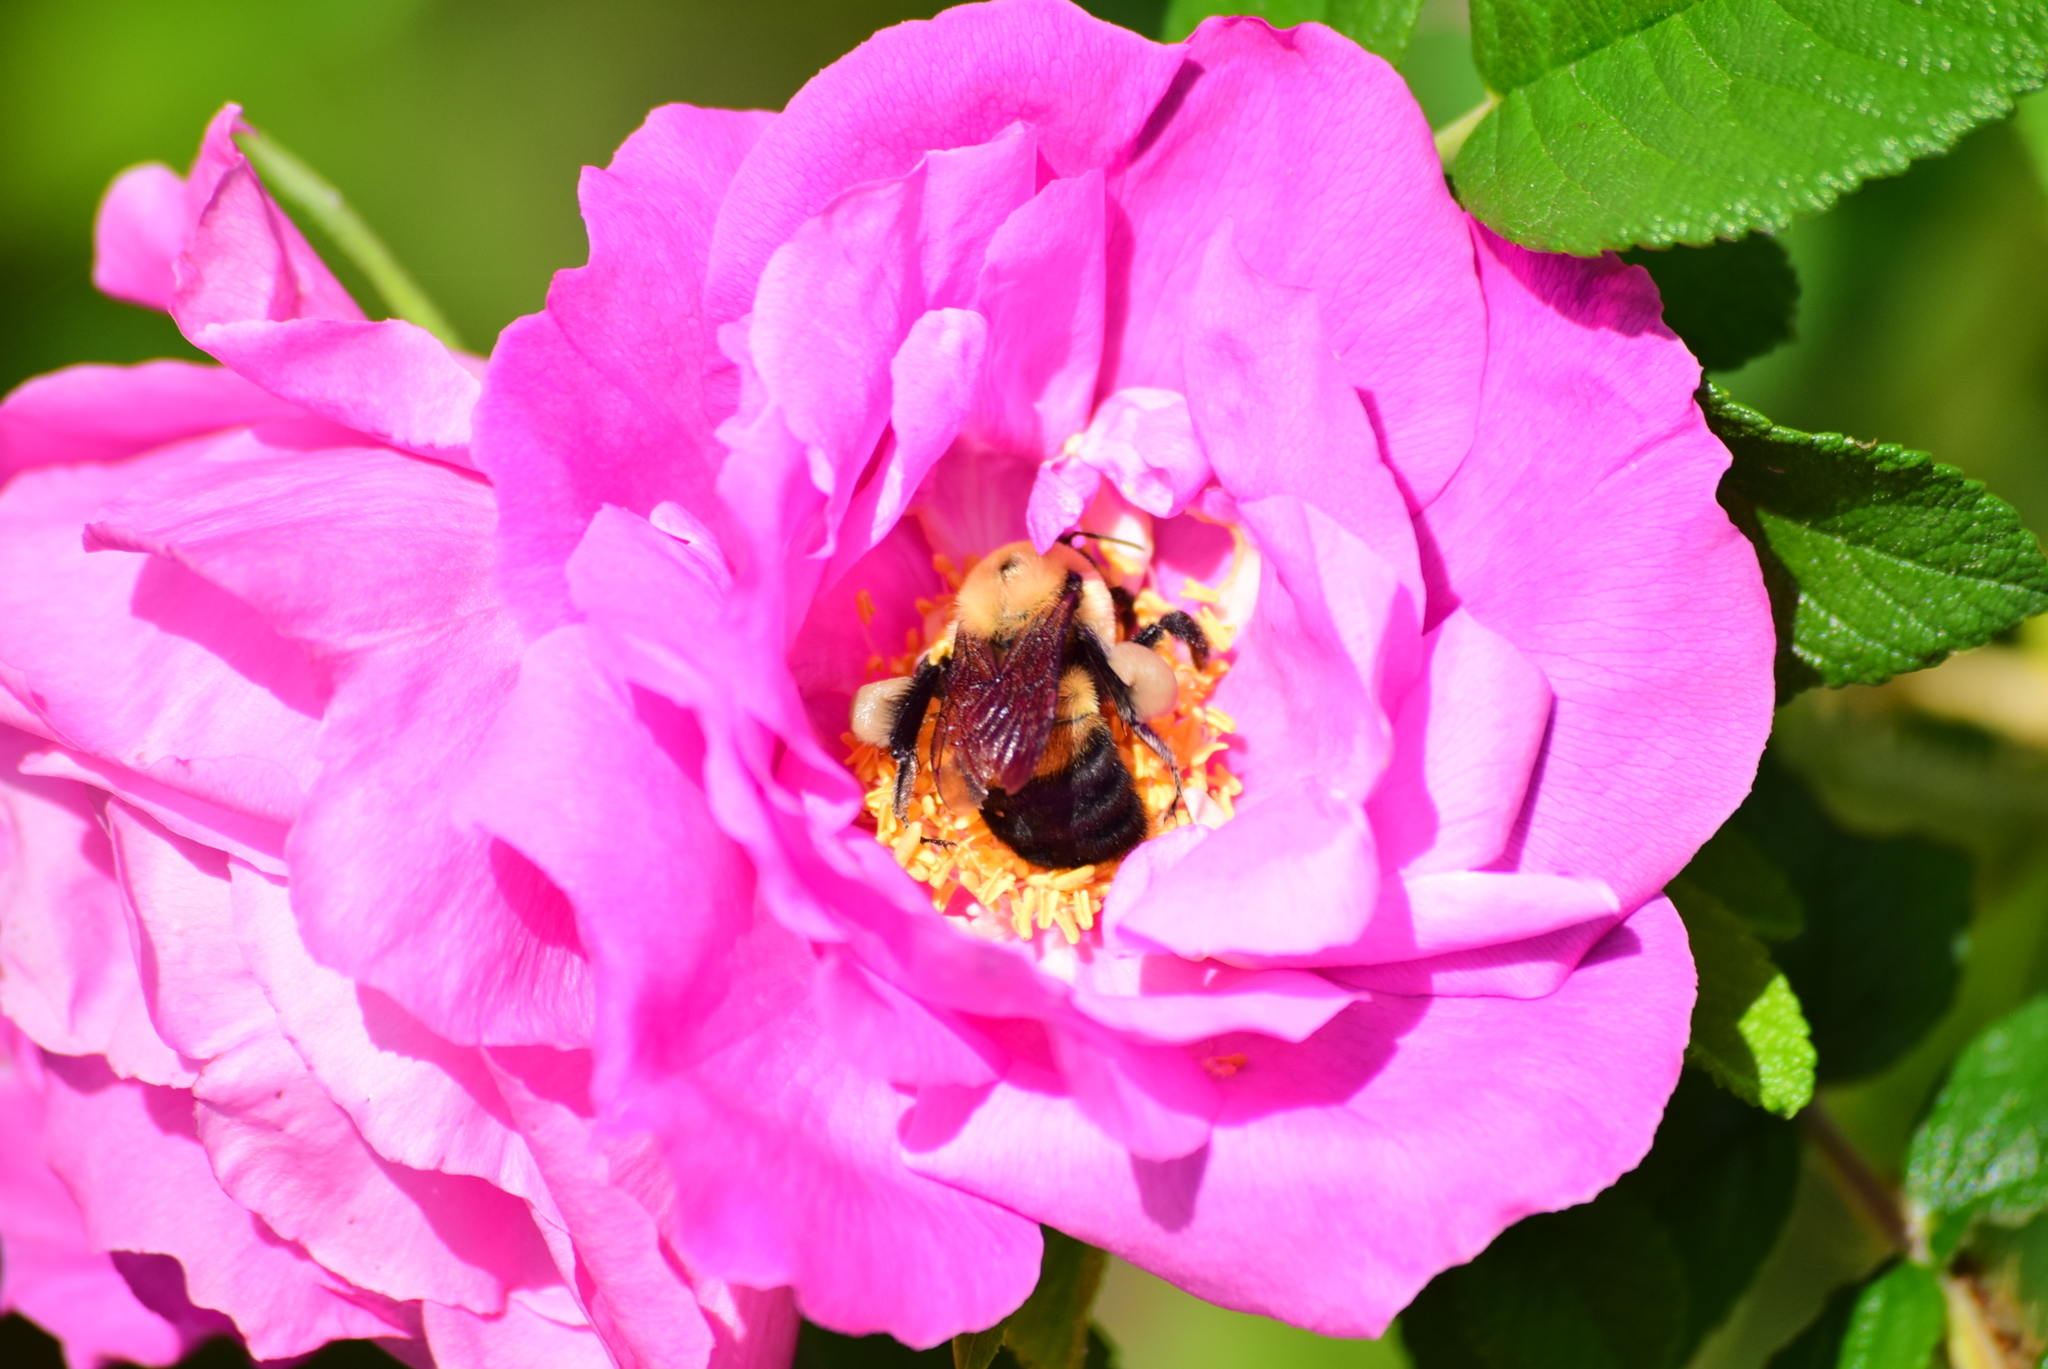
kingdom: Animalia
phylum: Arthropoda
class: Insecta
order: Hymenoptera
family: Apidae
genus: Bombus
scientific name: Bombus griseocollis
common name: Brown-belted bumble bee
